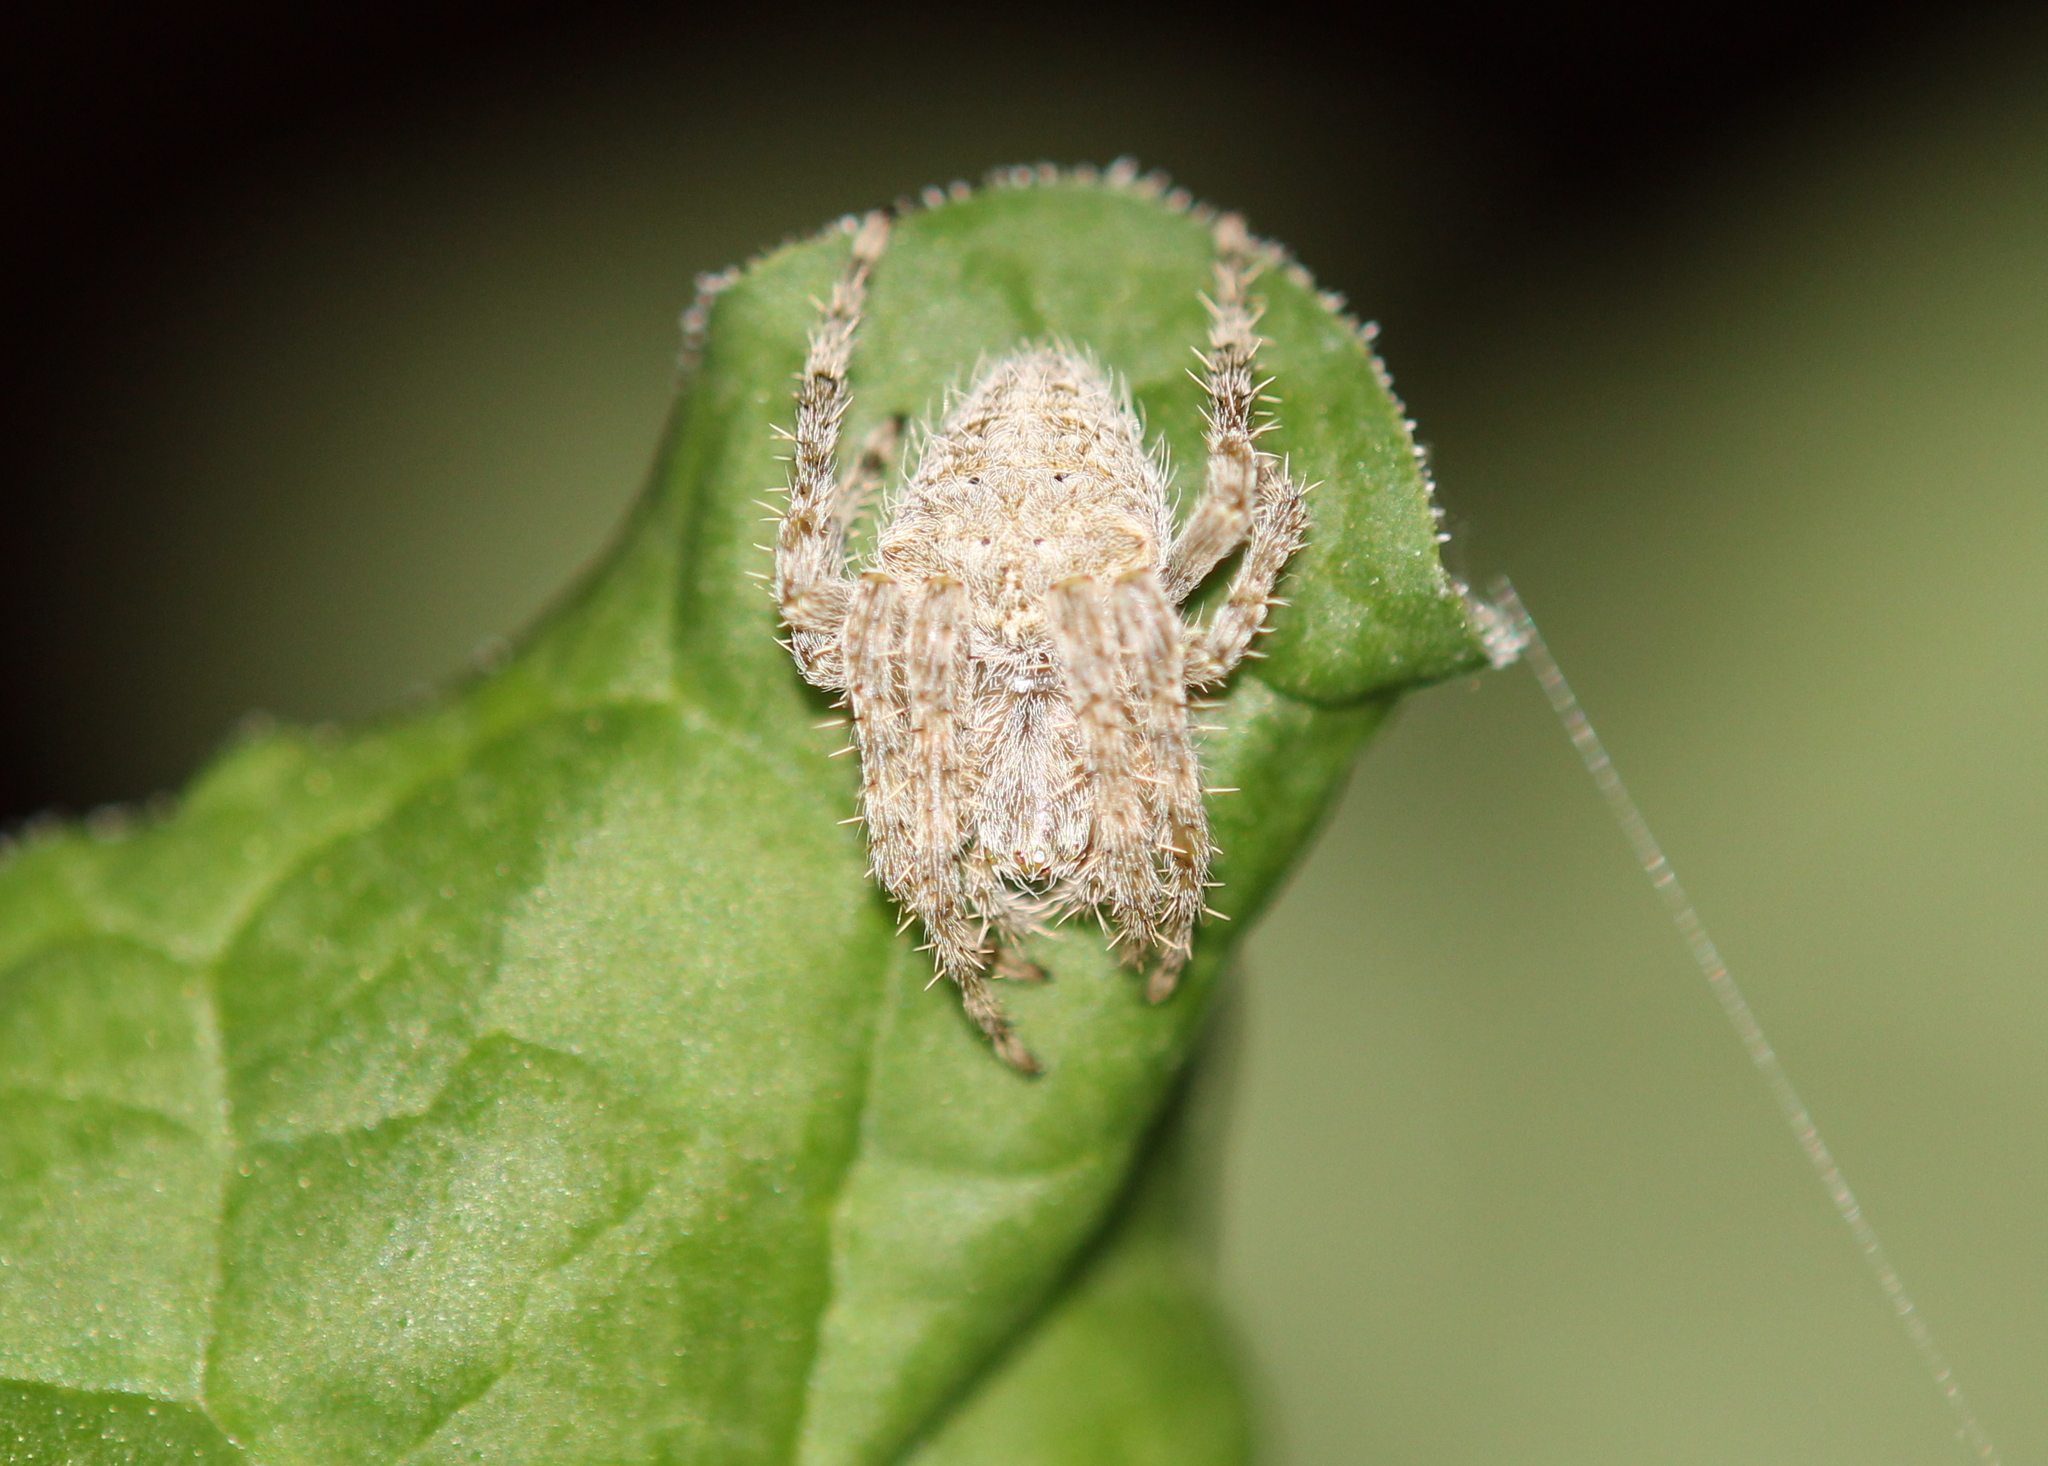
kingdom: Animalia
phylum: Arthropoda
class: Arachnida
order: Araneae
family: Araneidae
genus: Araneus
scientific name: Araneus cavaticus
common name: Barn orbweaver
